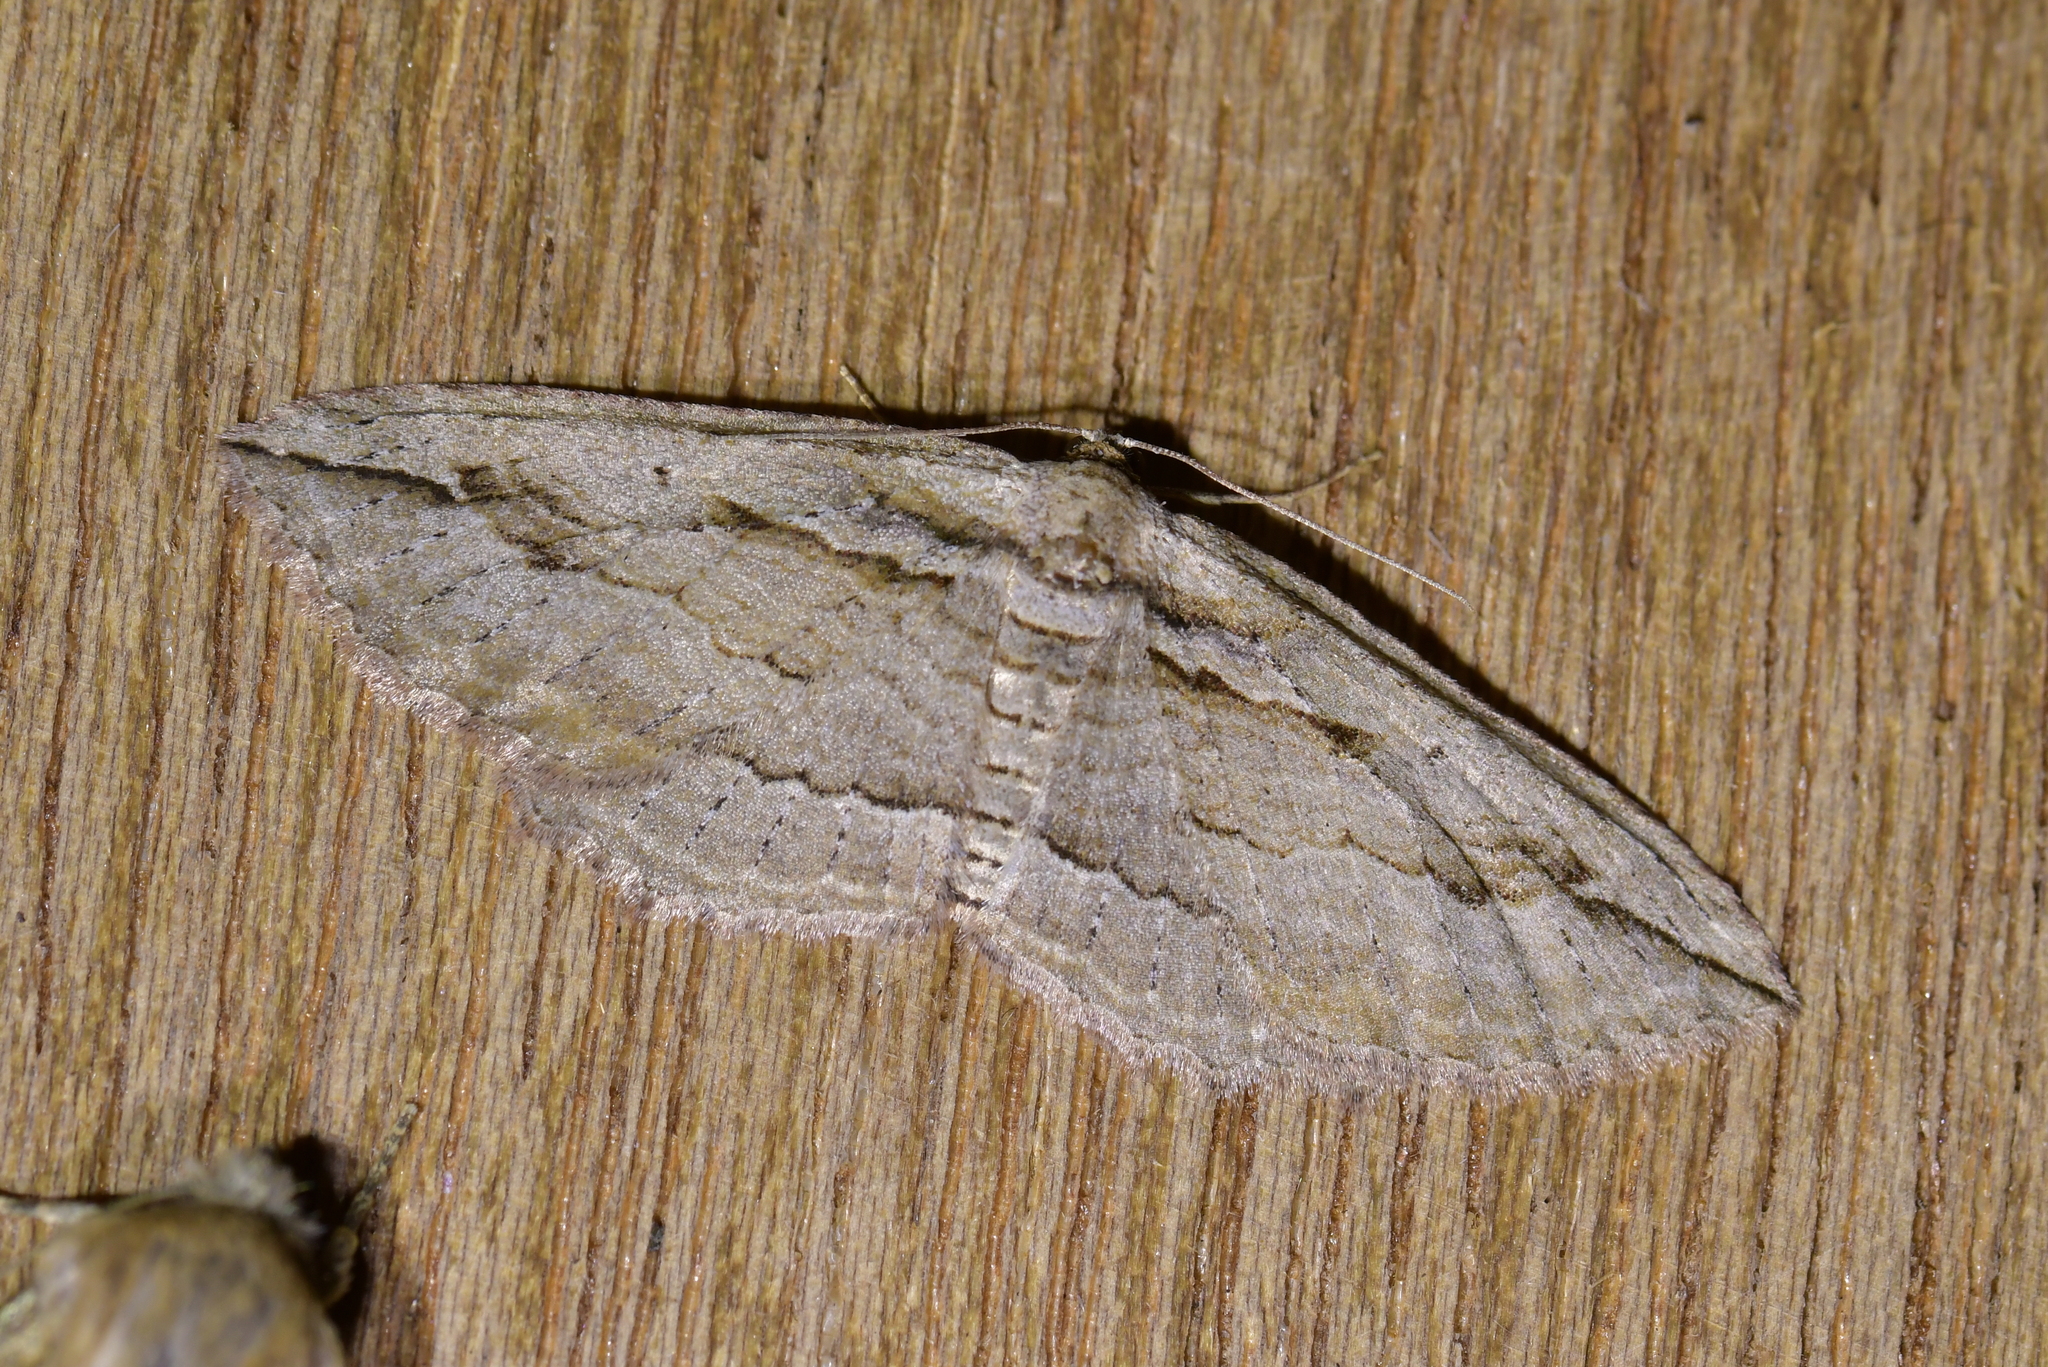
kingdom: Animalia
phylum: Arthropoda
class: Insecta
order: Lepidoptera
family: Geometridae
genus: Austrocidaria
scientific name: Austrocidaria gobiata
